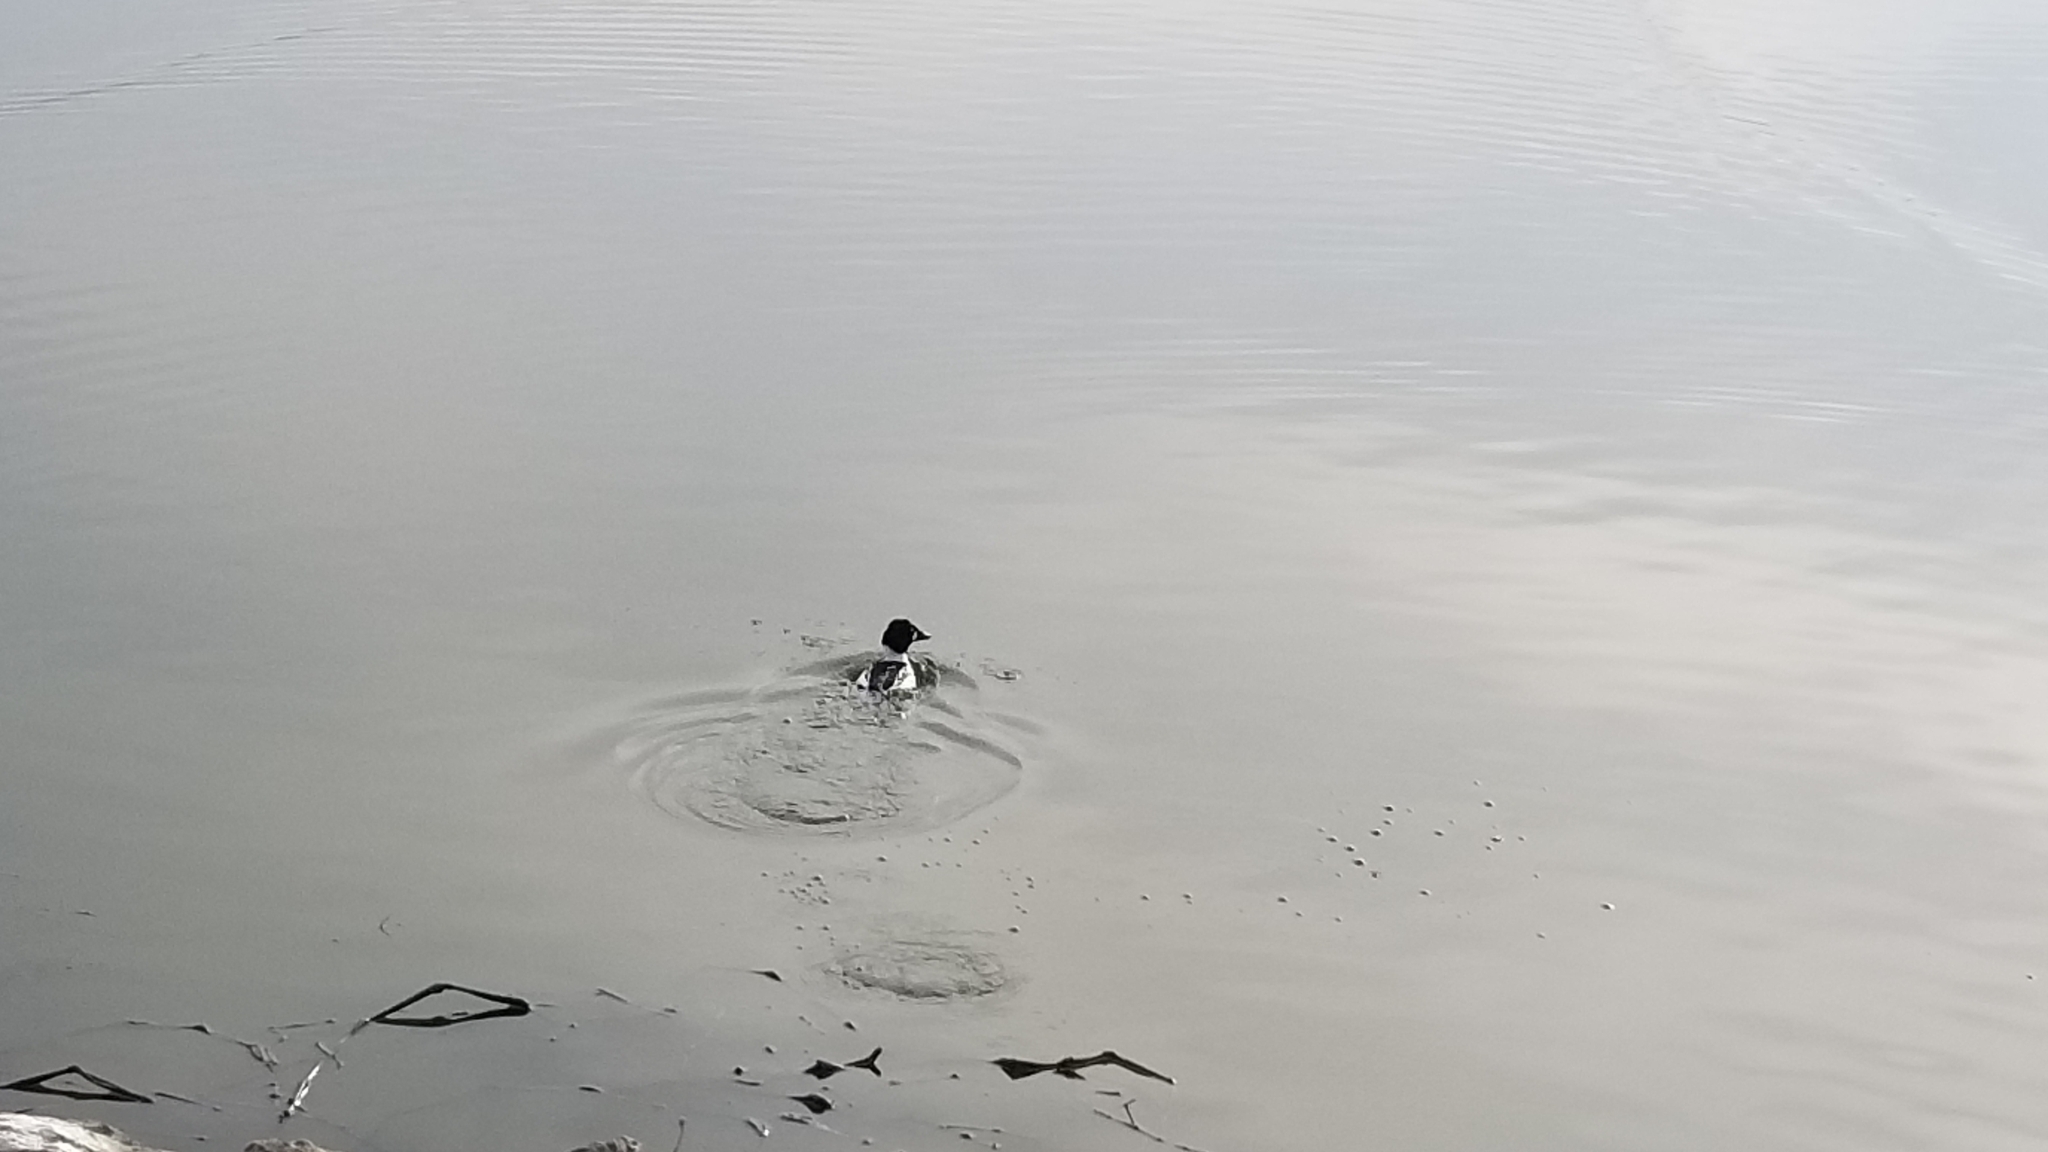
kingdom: Animalia
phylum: Chordata
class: Aves
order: Anseriformes
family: Anatidae
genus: Bucephala
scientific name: Bucephala clangula
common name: Common goldeneye
